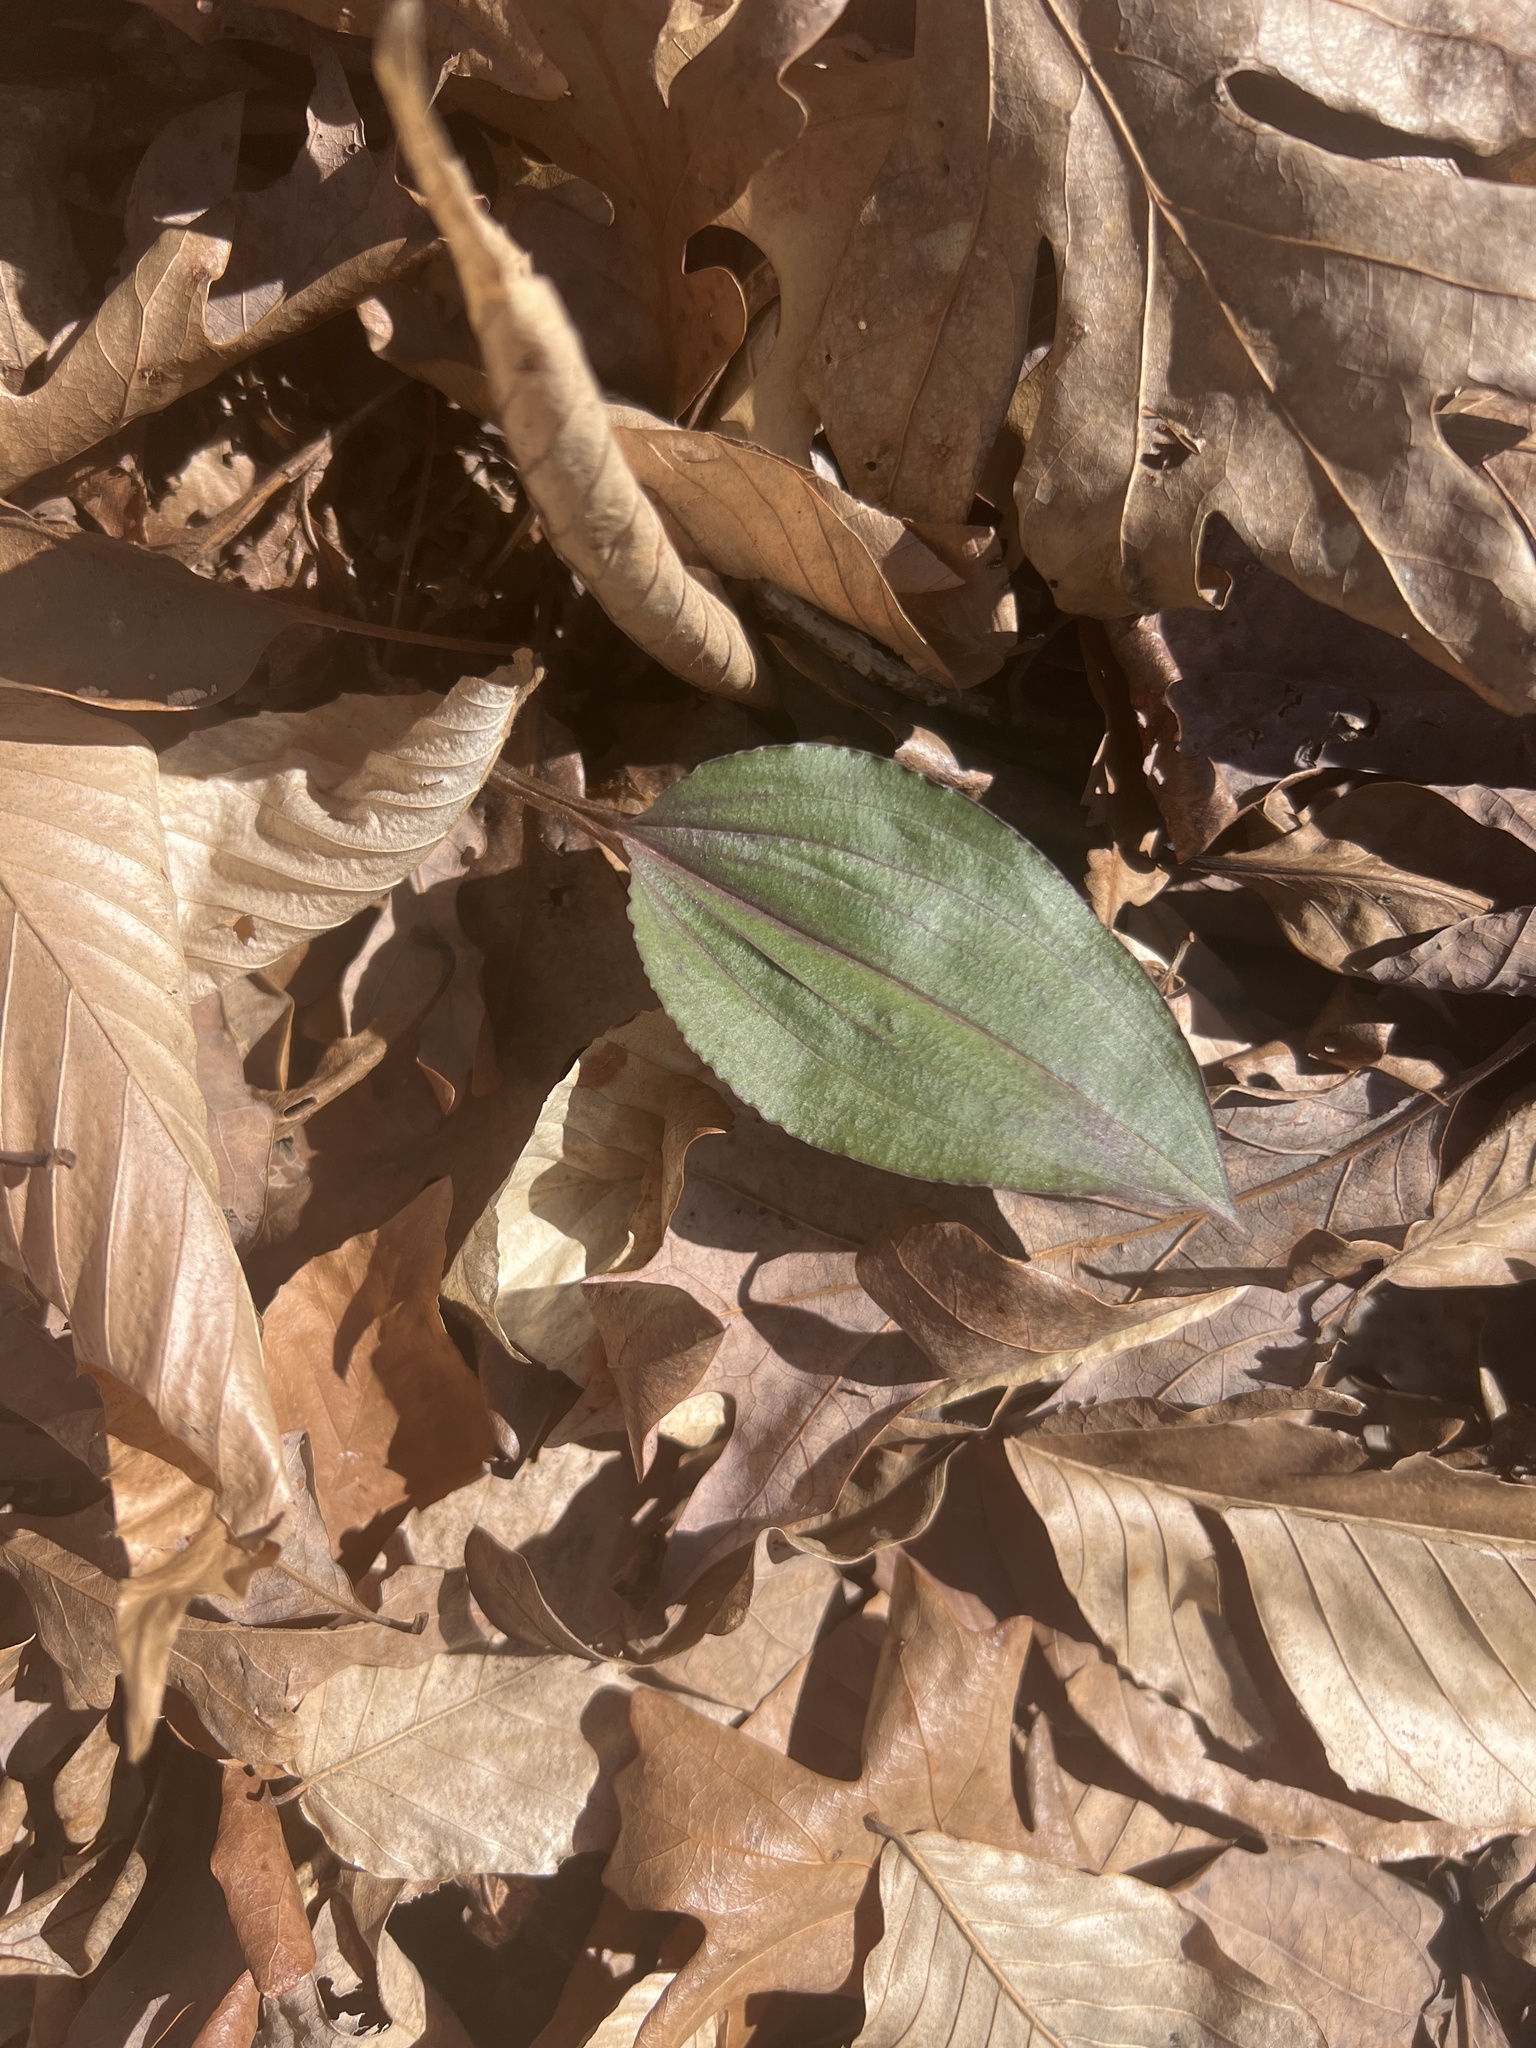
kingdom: Plantae
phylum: Tracheophyta
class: Liliopsida
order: Asparagales
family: Orchidaceae
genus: Tipularia
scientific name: Tipularia discolor
